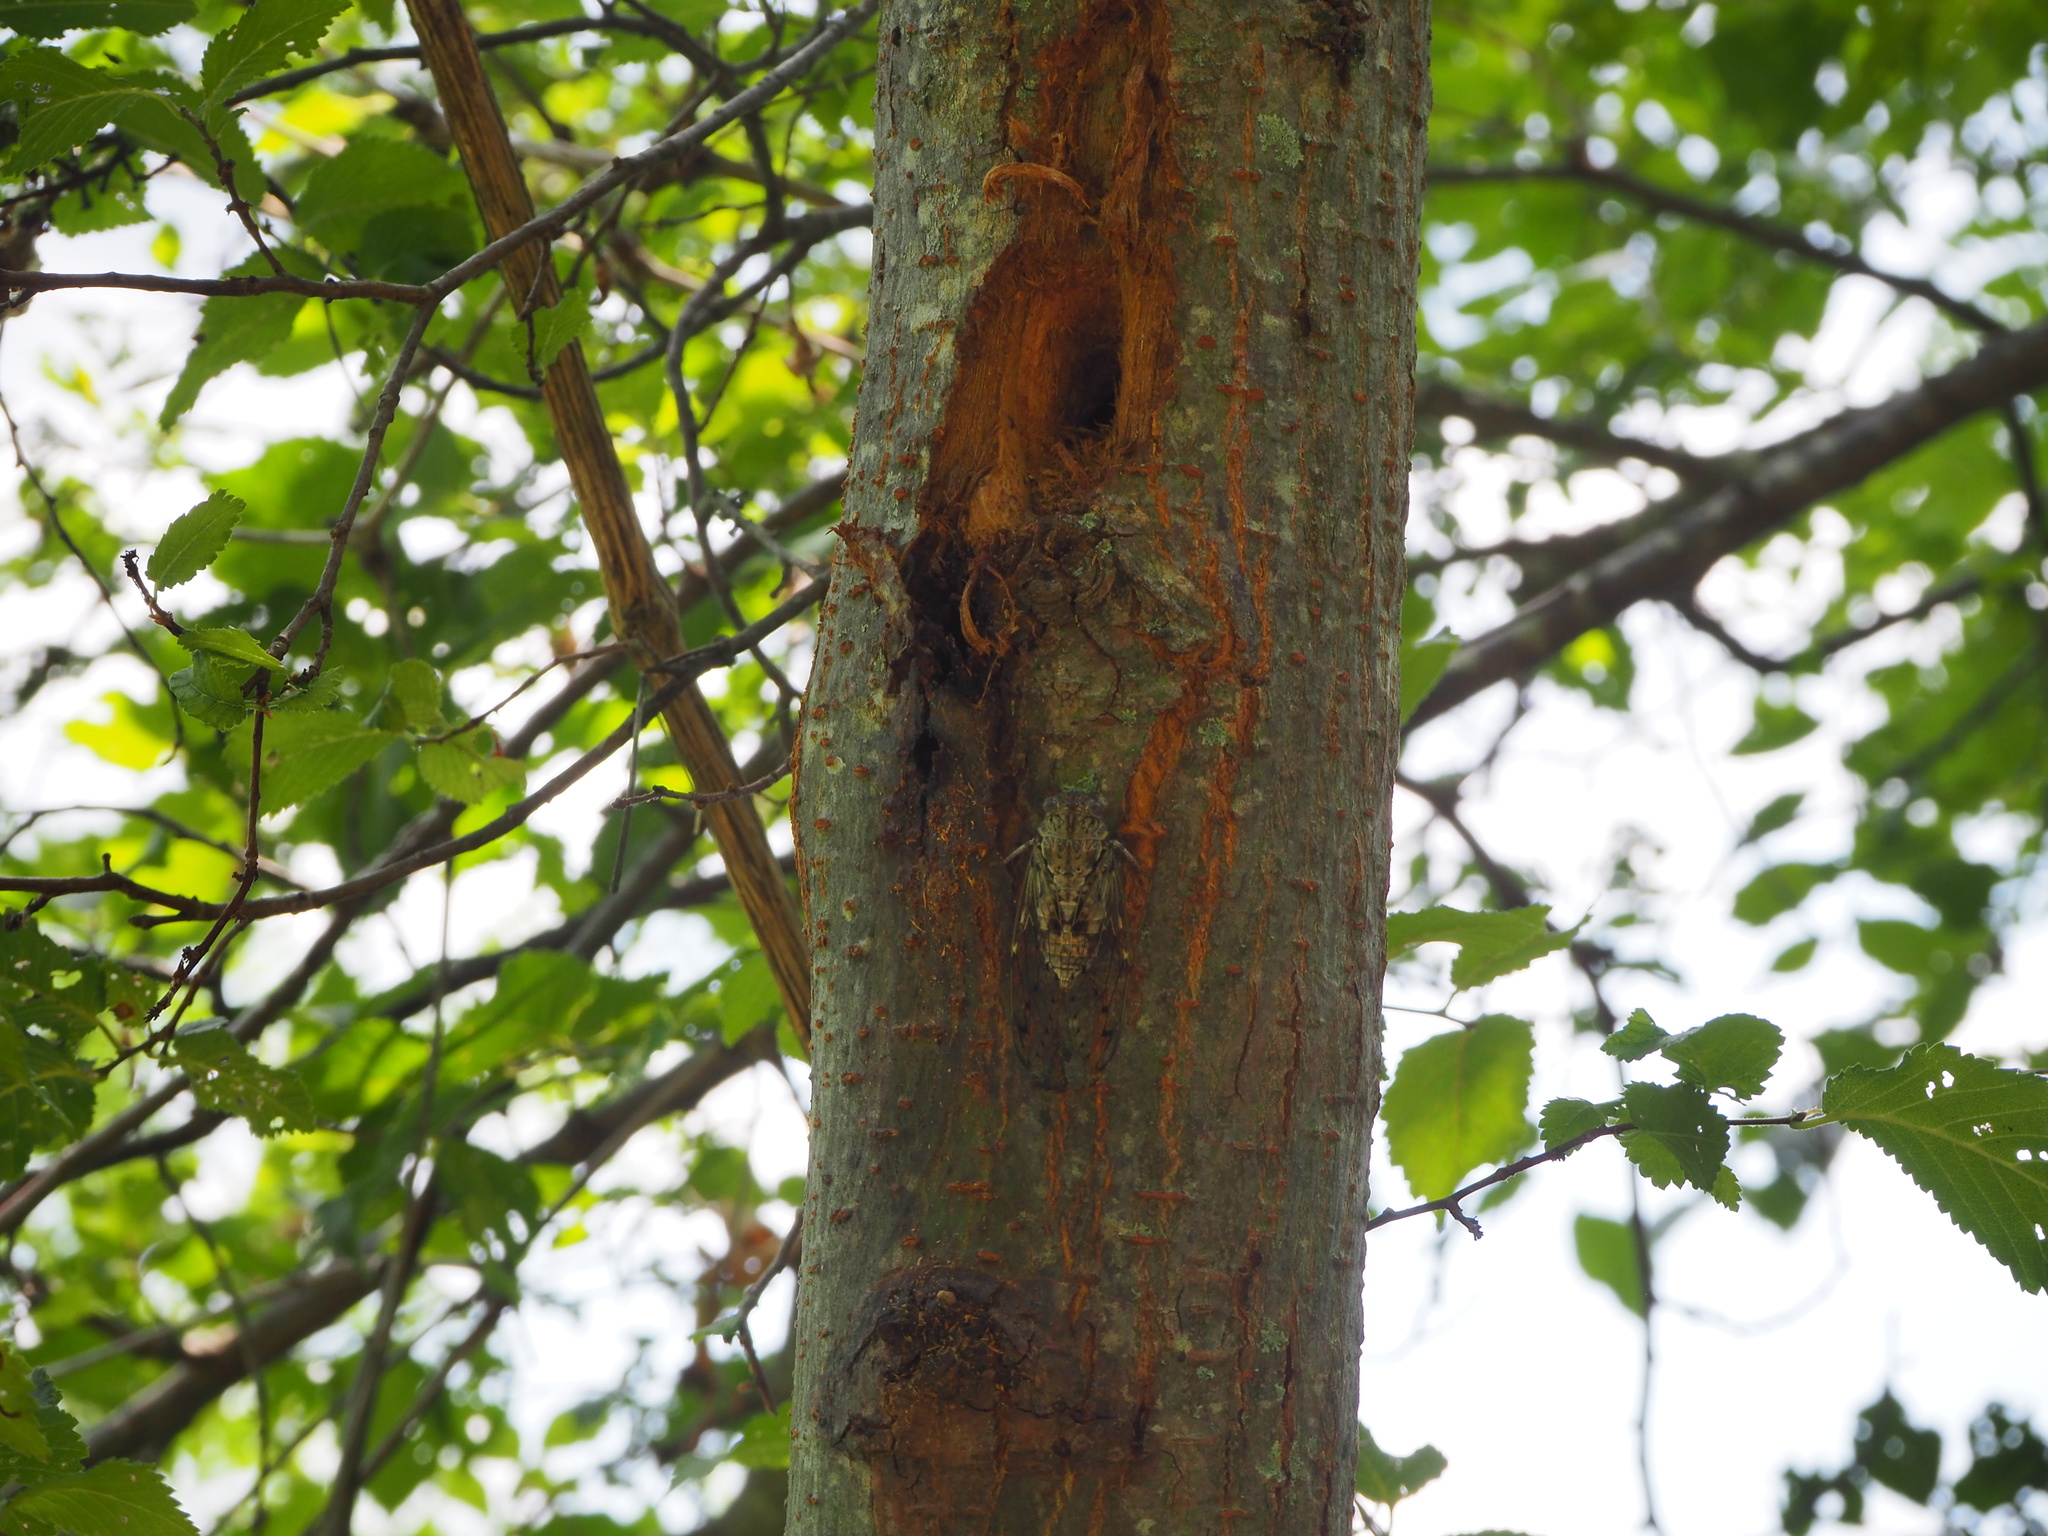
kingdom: Animalia
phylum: Arthropoda
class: Insecta
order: Hemiptera
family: Cicadidae
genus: Cicada
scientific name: Cicada orni
